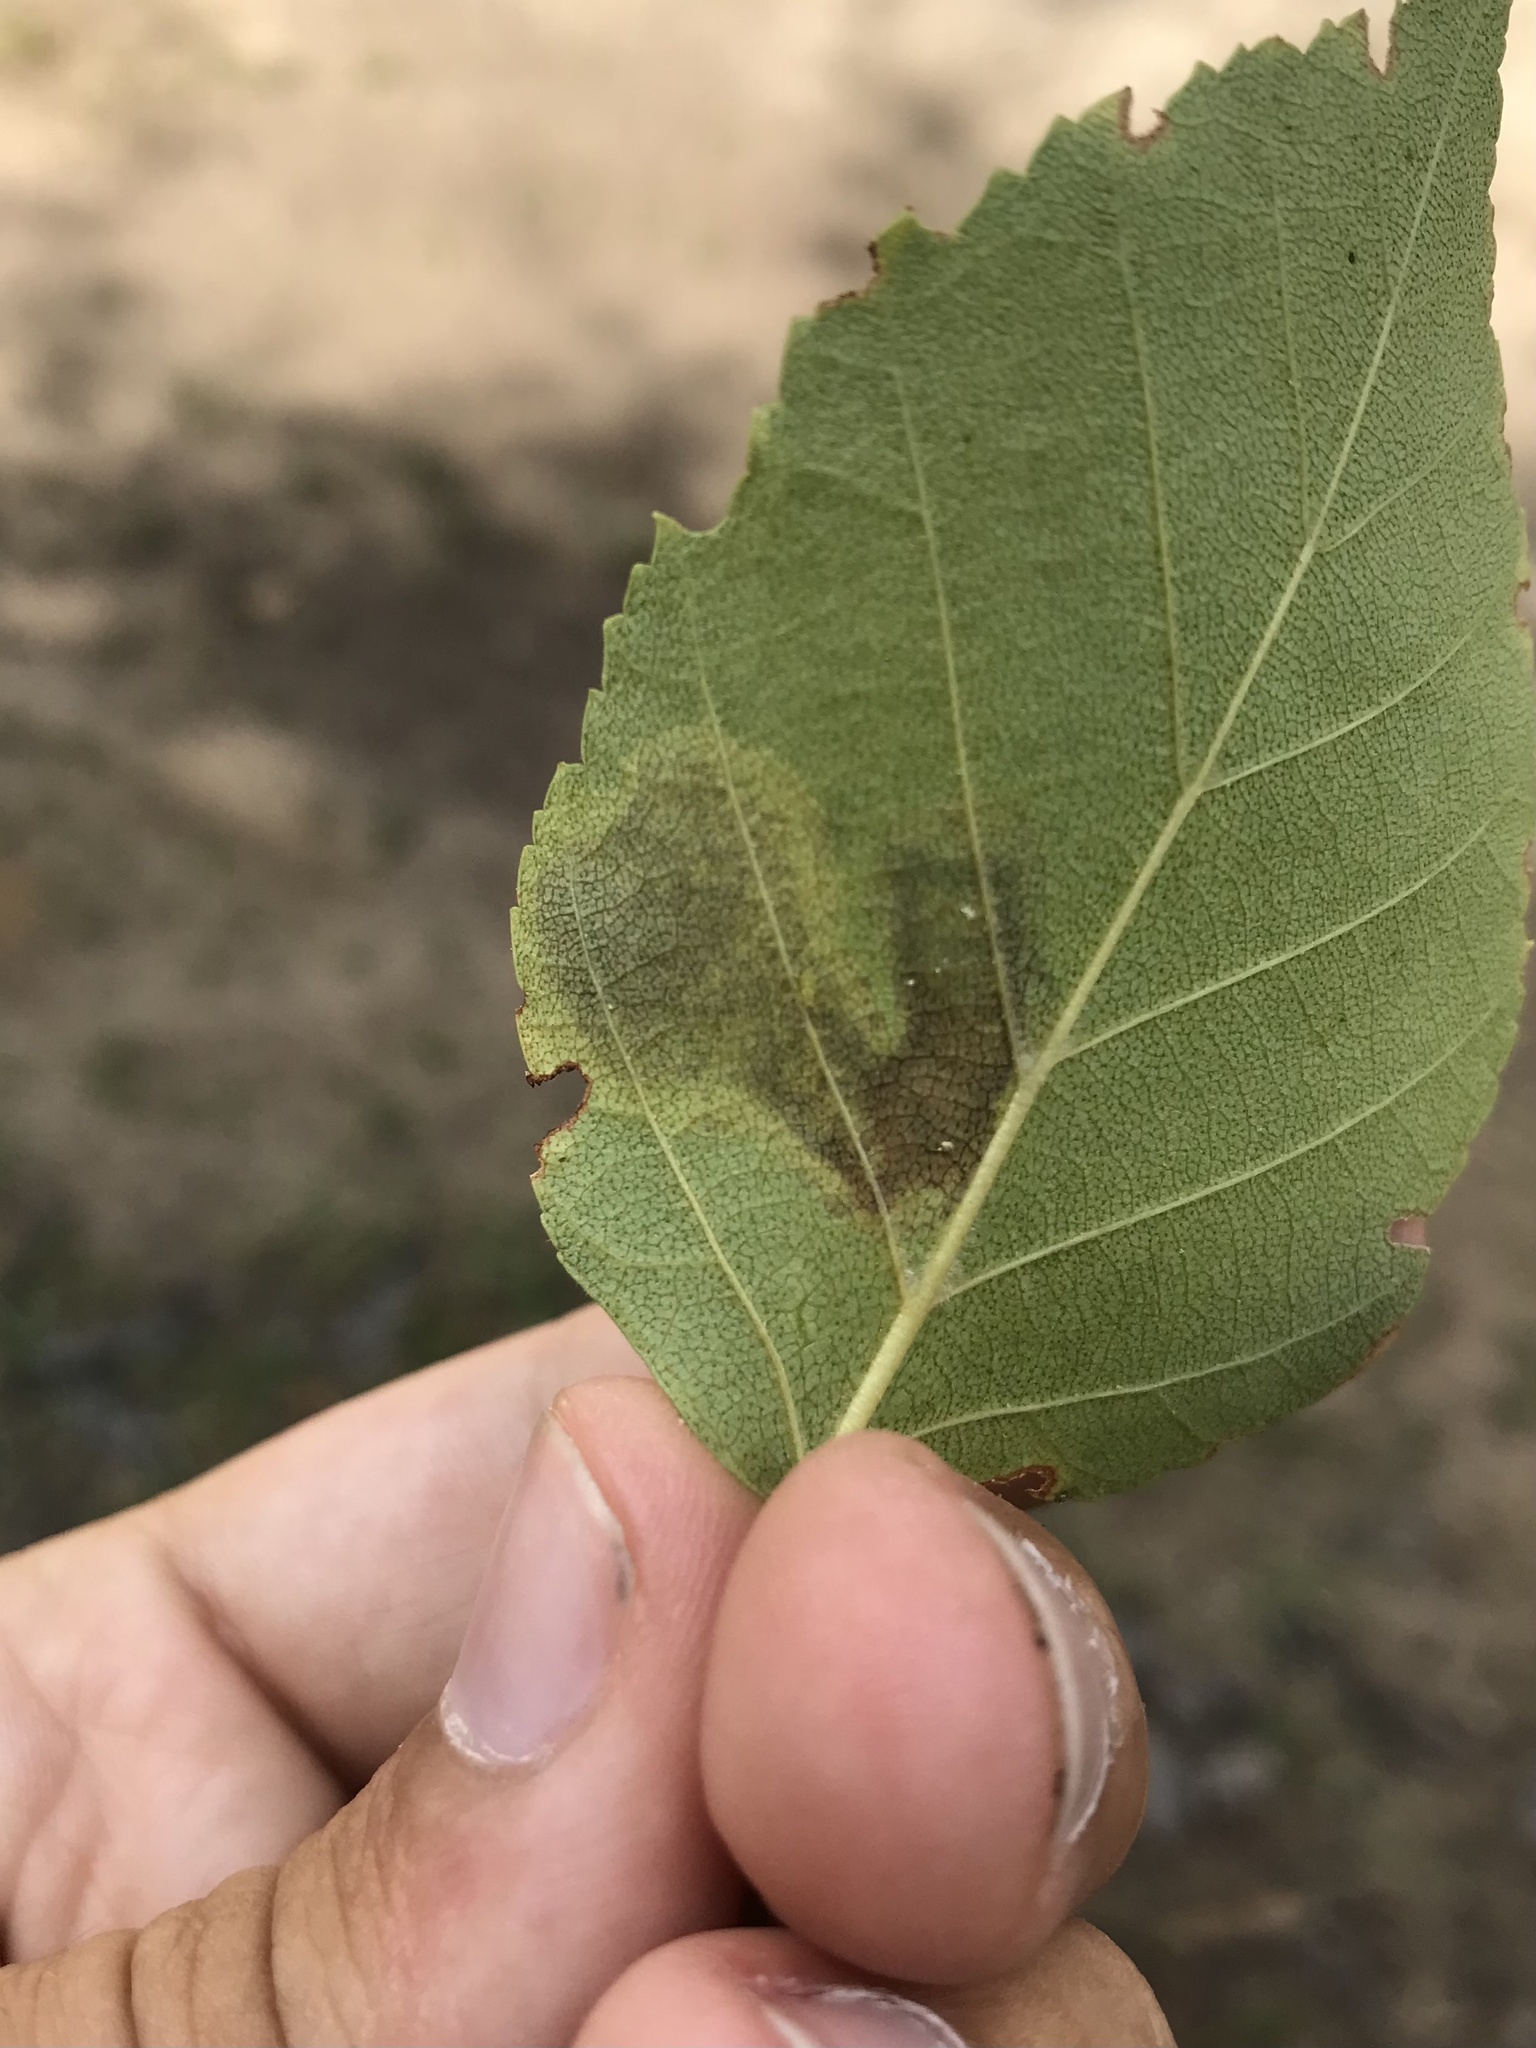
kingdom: Animalia
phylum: Arthropoda
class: Insecta
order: Lepidoptera
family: Gracillariidae
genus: Cameraria
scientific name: Cameraria betulivora
